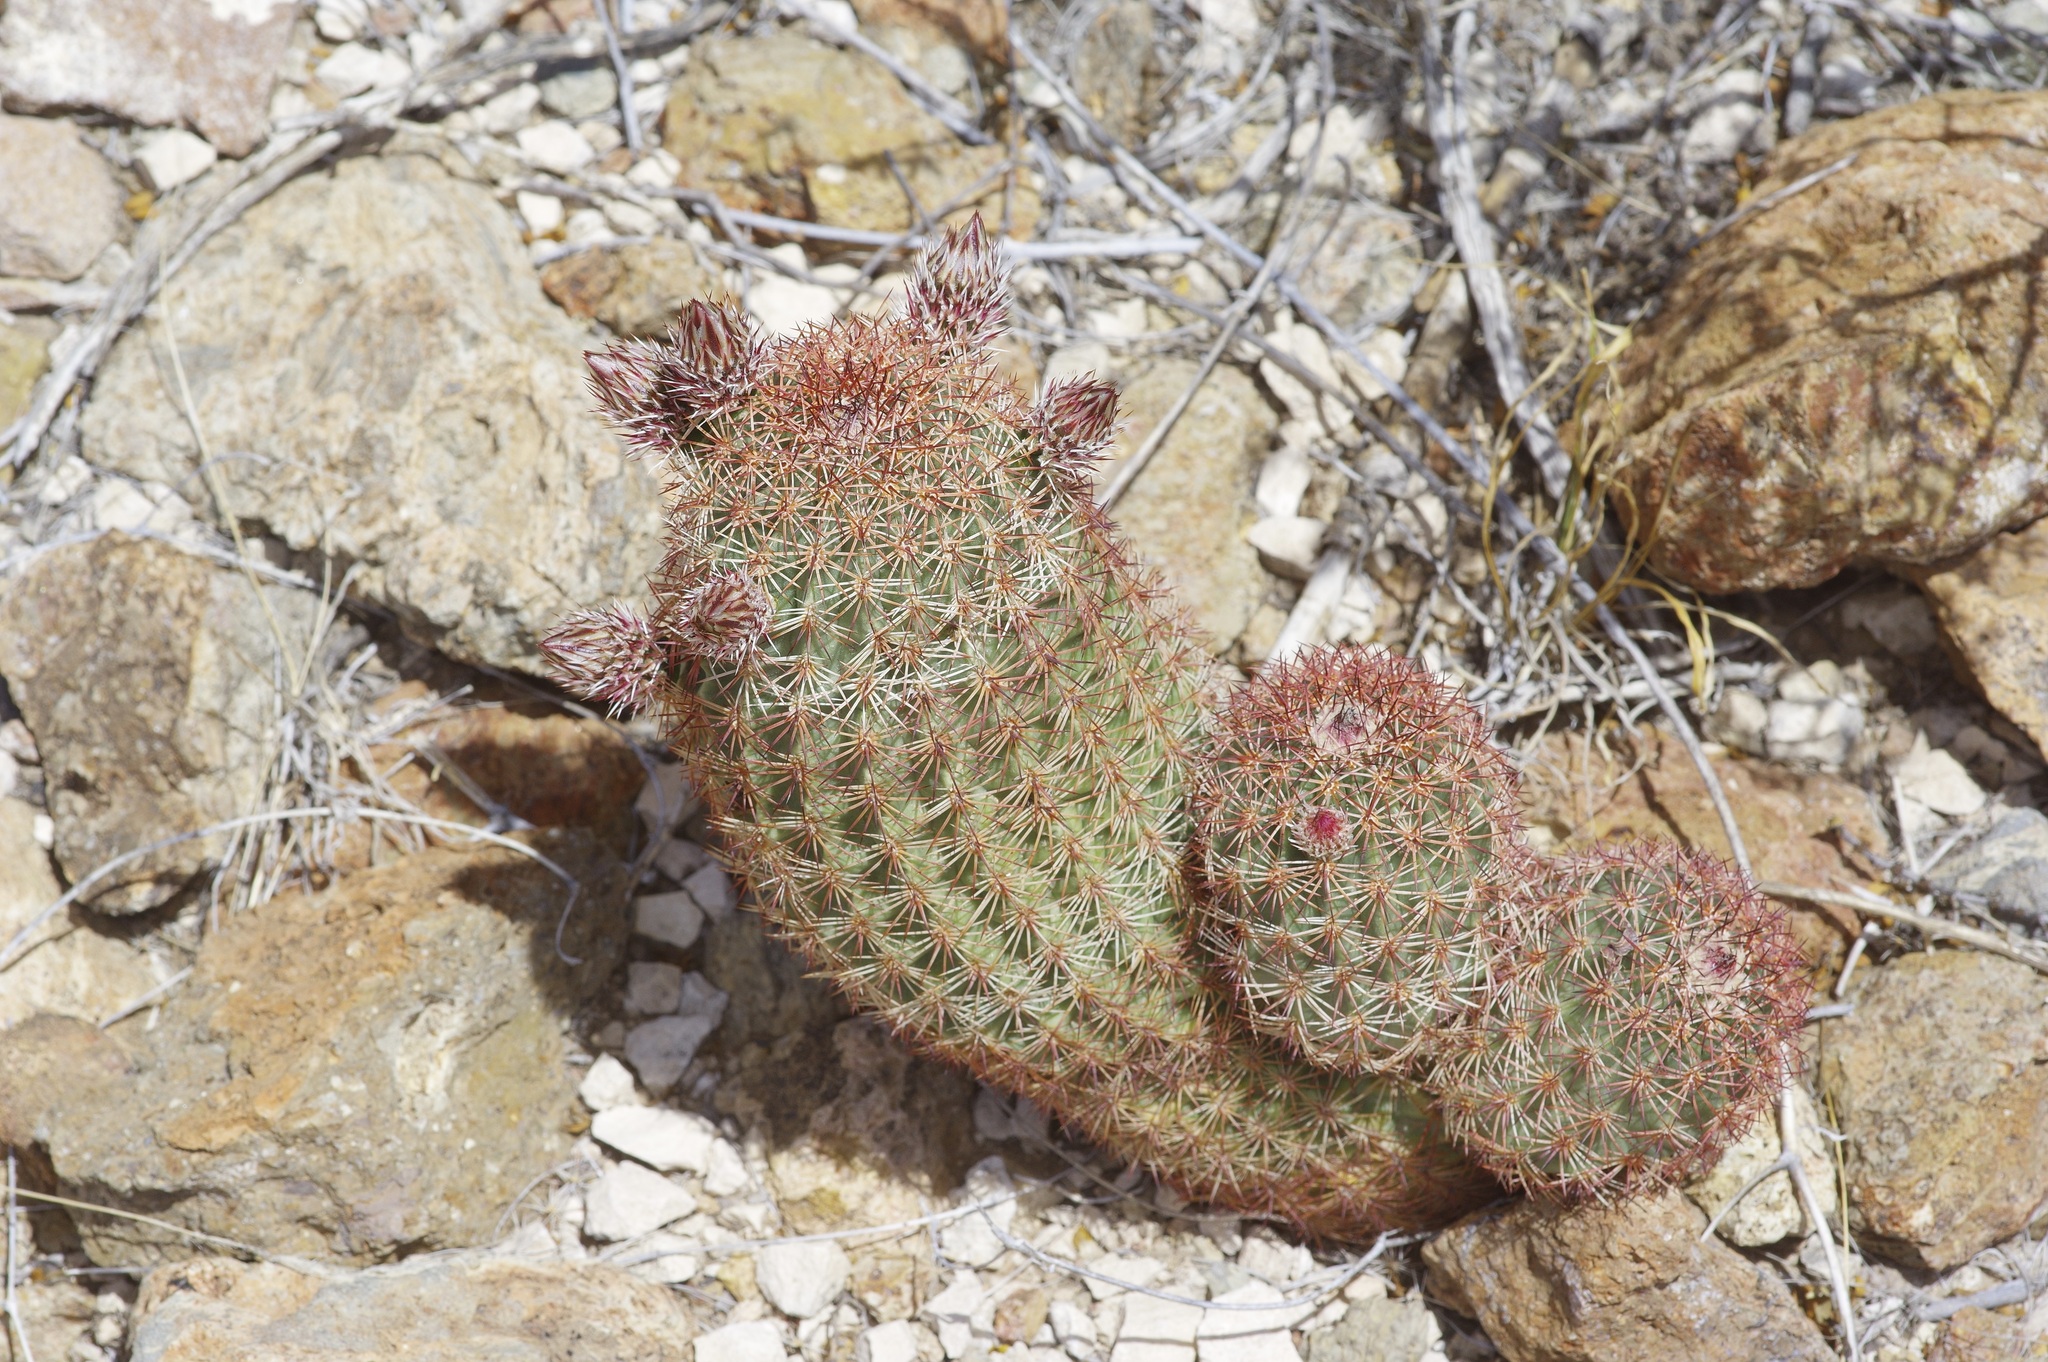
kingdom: Plantae
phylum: Tracheophyta
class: Magnoliopsida
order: Caryophyllales
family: Cactaceae
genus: Echinocereus
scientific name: Echinocereus
